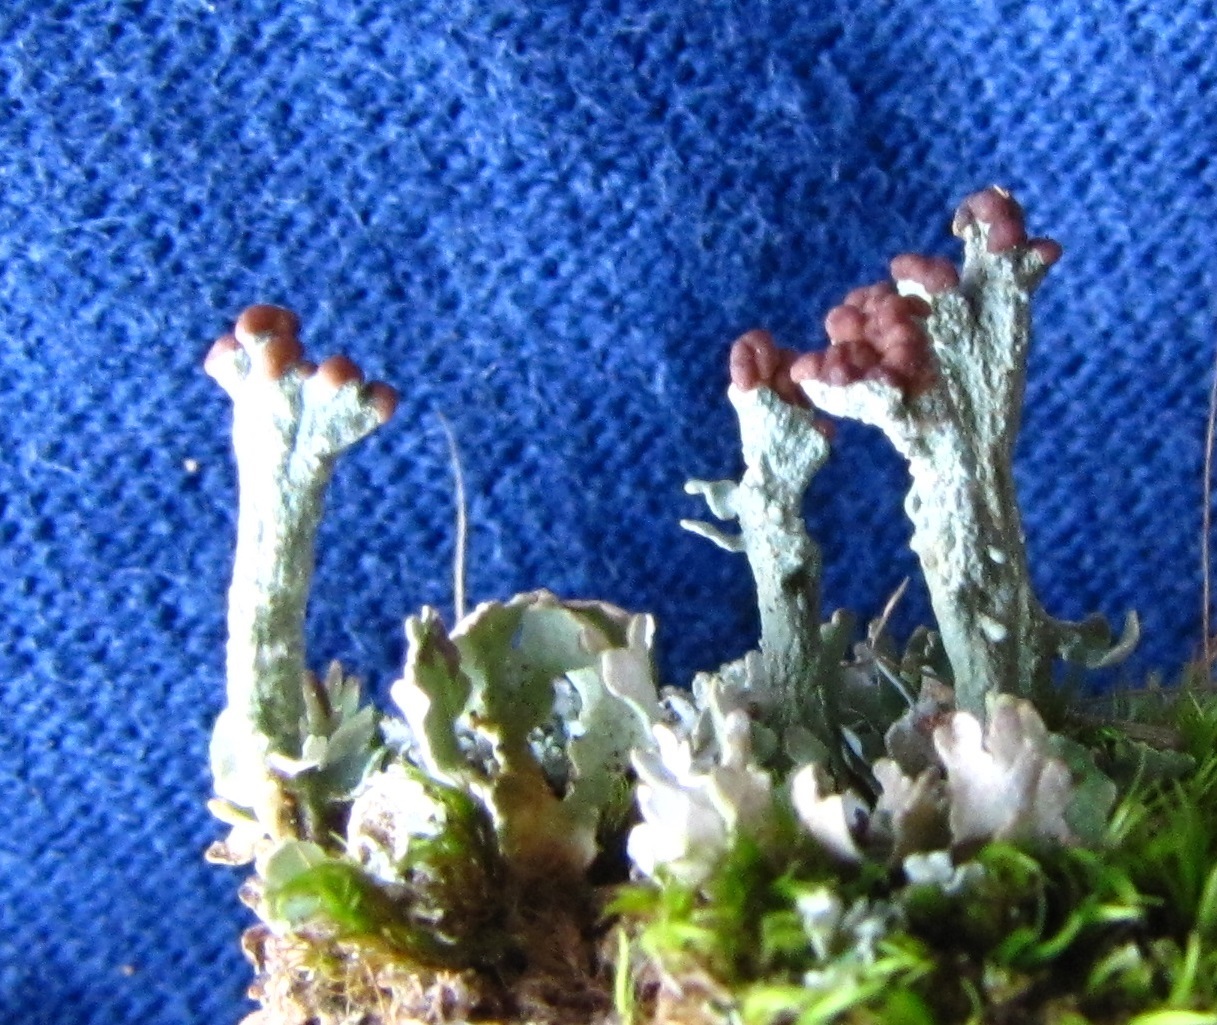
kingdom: Fungi
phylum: Ascomycota
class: Lecanoromycetes
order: Lecanorales
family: Cladoniaceae
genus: Cladonia
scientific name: Cladonia peziziformis
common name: Cup lichen
